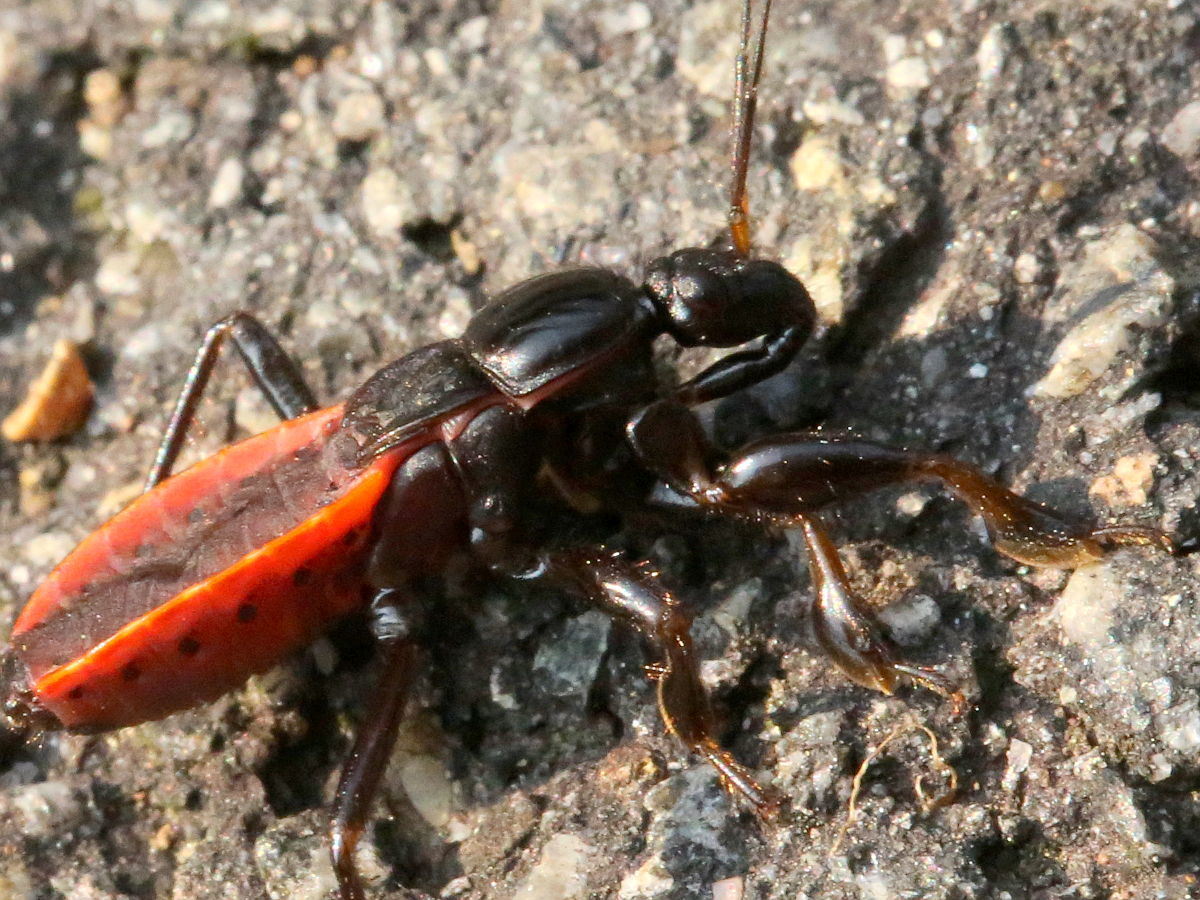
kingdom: Animalia
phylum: Arthropoda
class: Insecta
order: Hemiptera
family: Reduviidae
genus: Melanolestes
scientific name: Melanolestes picipes
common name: Assassin bug
